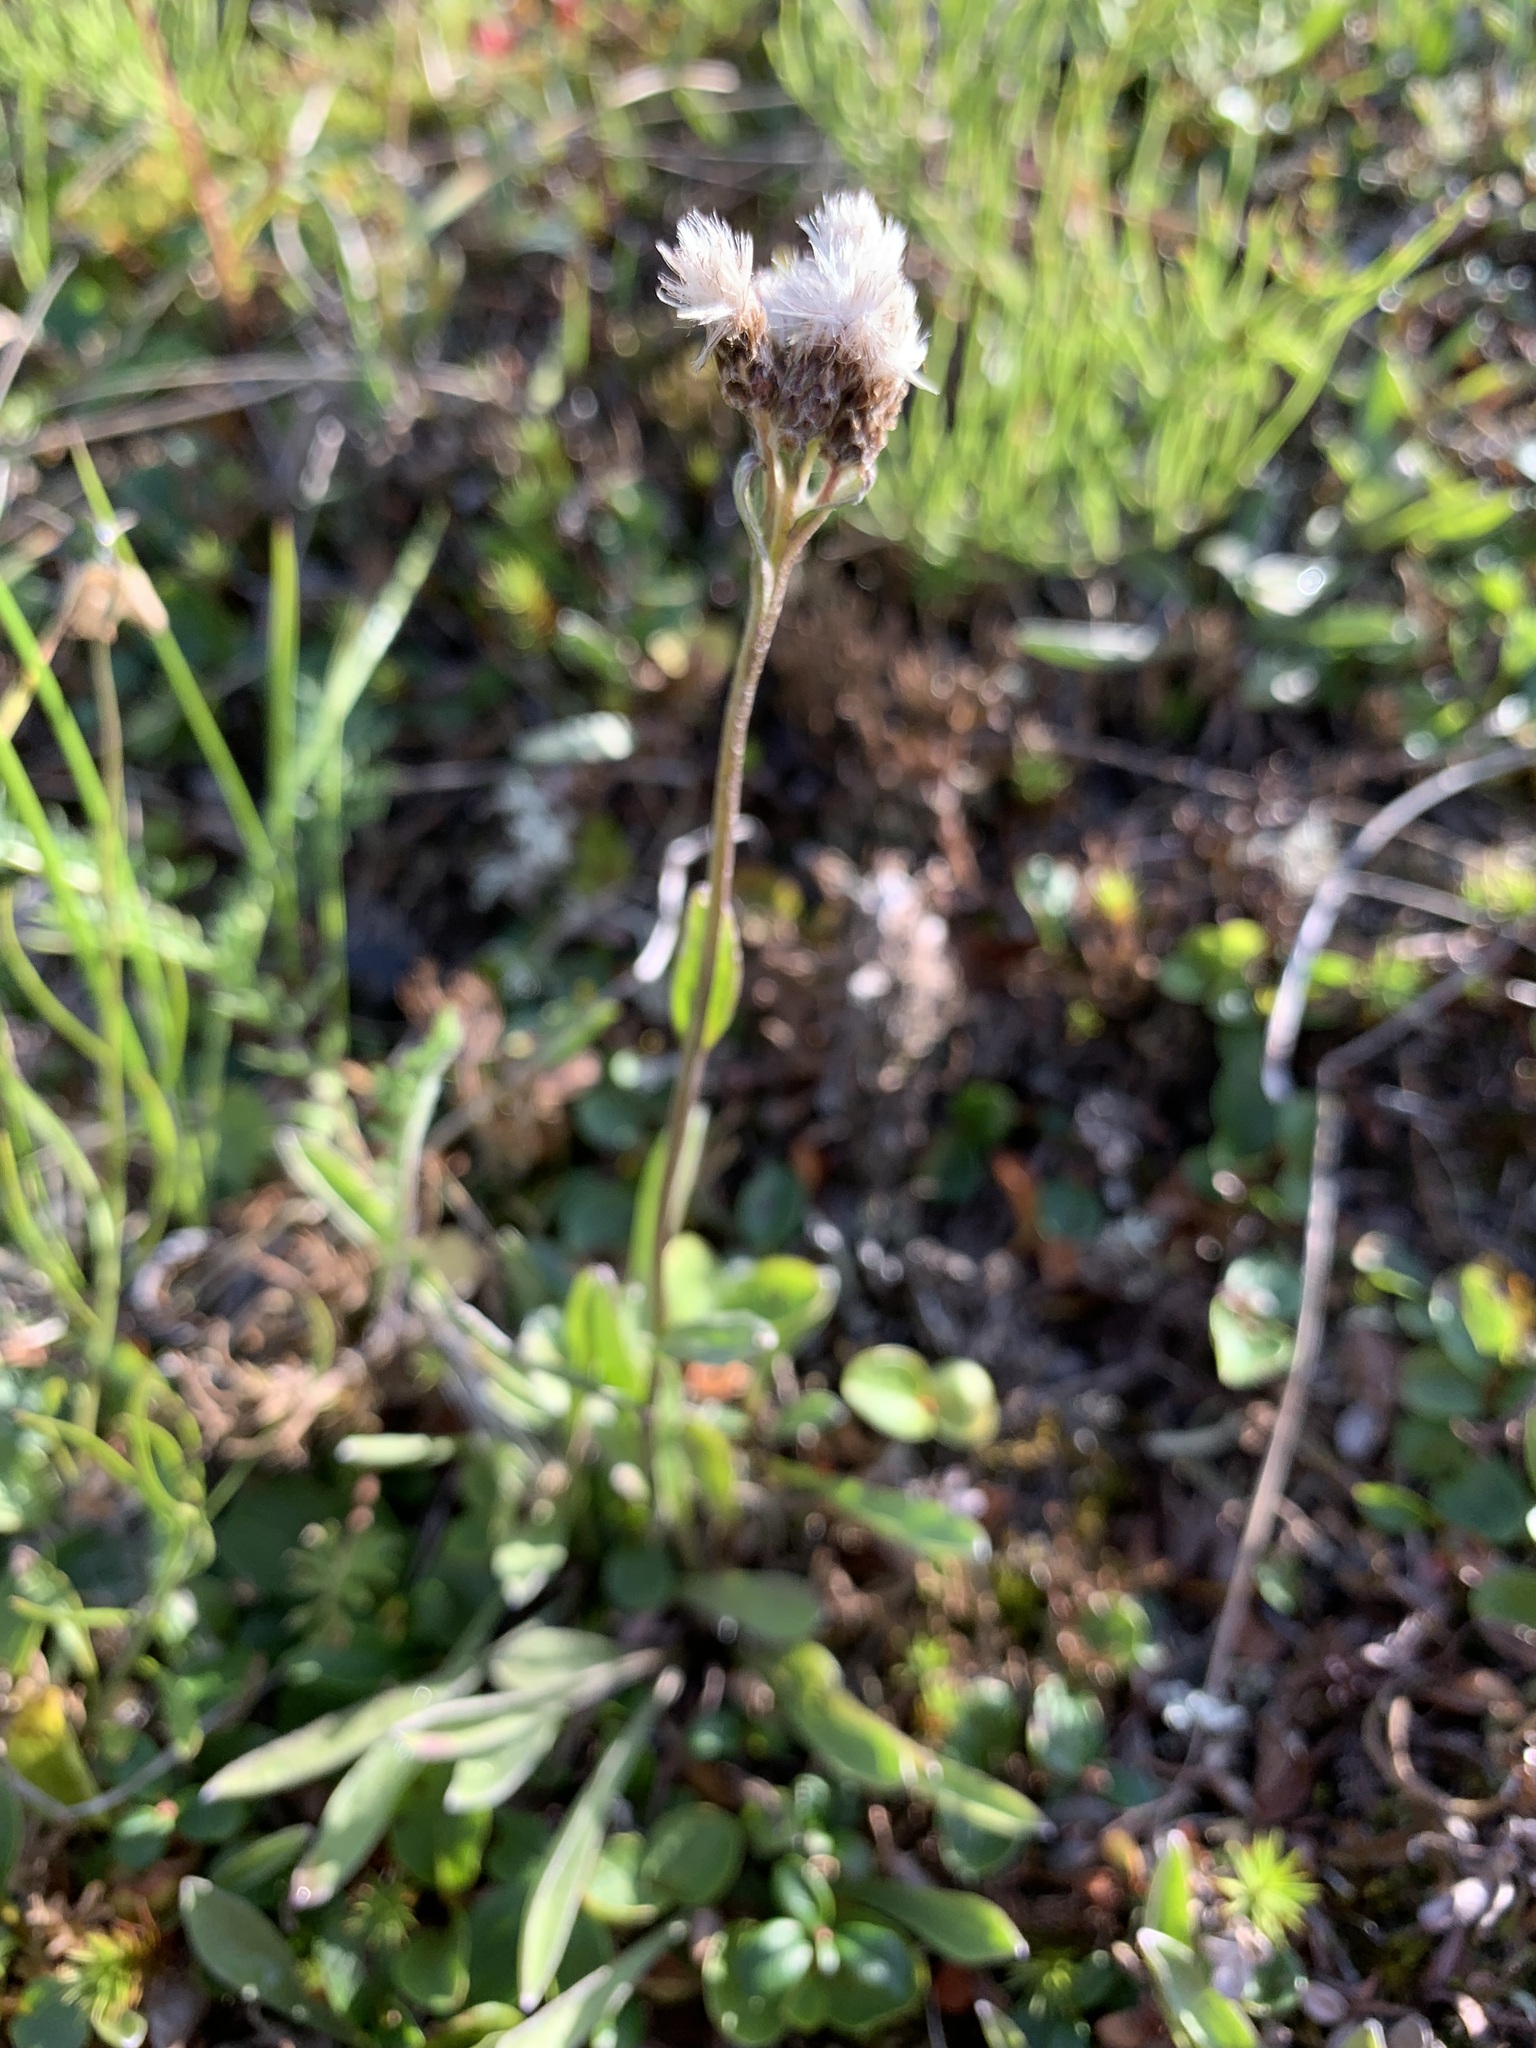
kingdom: Plantae
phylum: Tracheophyta
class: Magnoliopsida
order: Asterales
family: Asteraceae
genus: Antennaria
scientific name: Antennaria lanata
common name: Woolly pussytoes
